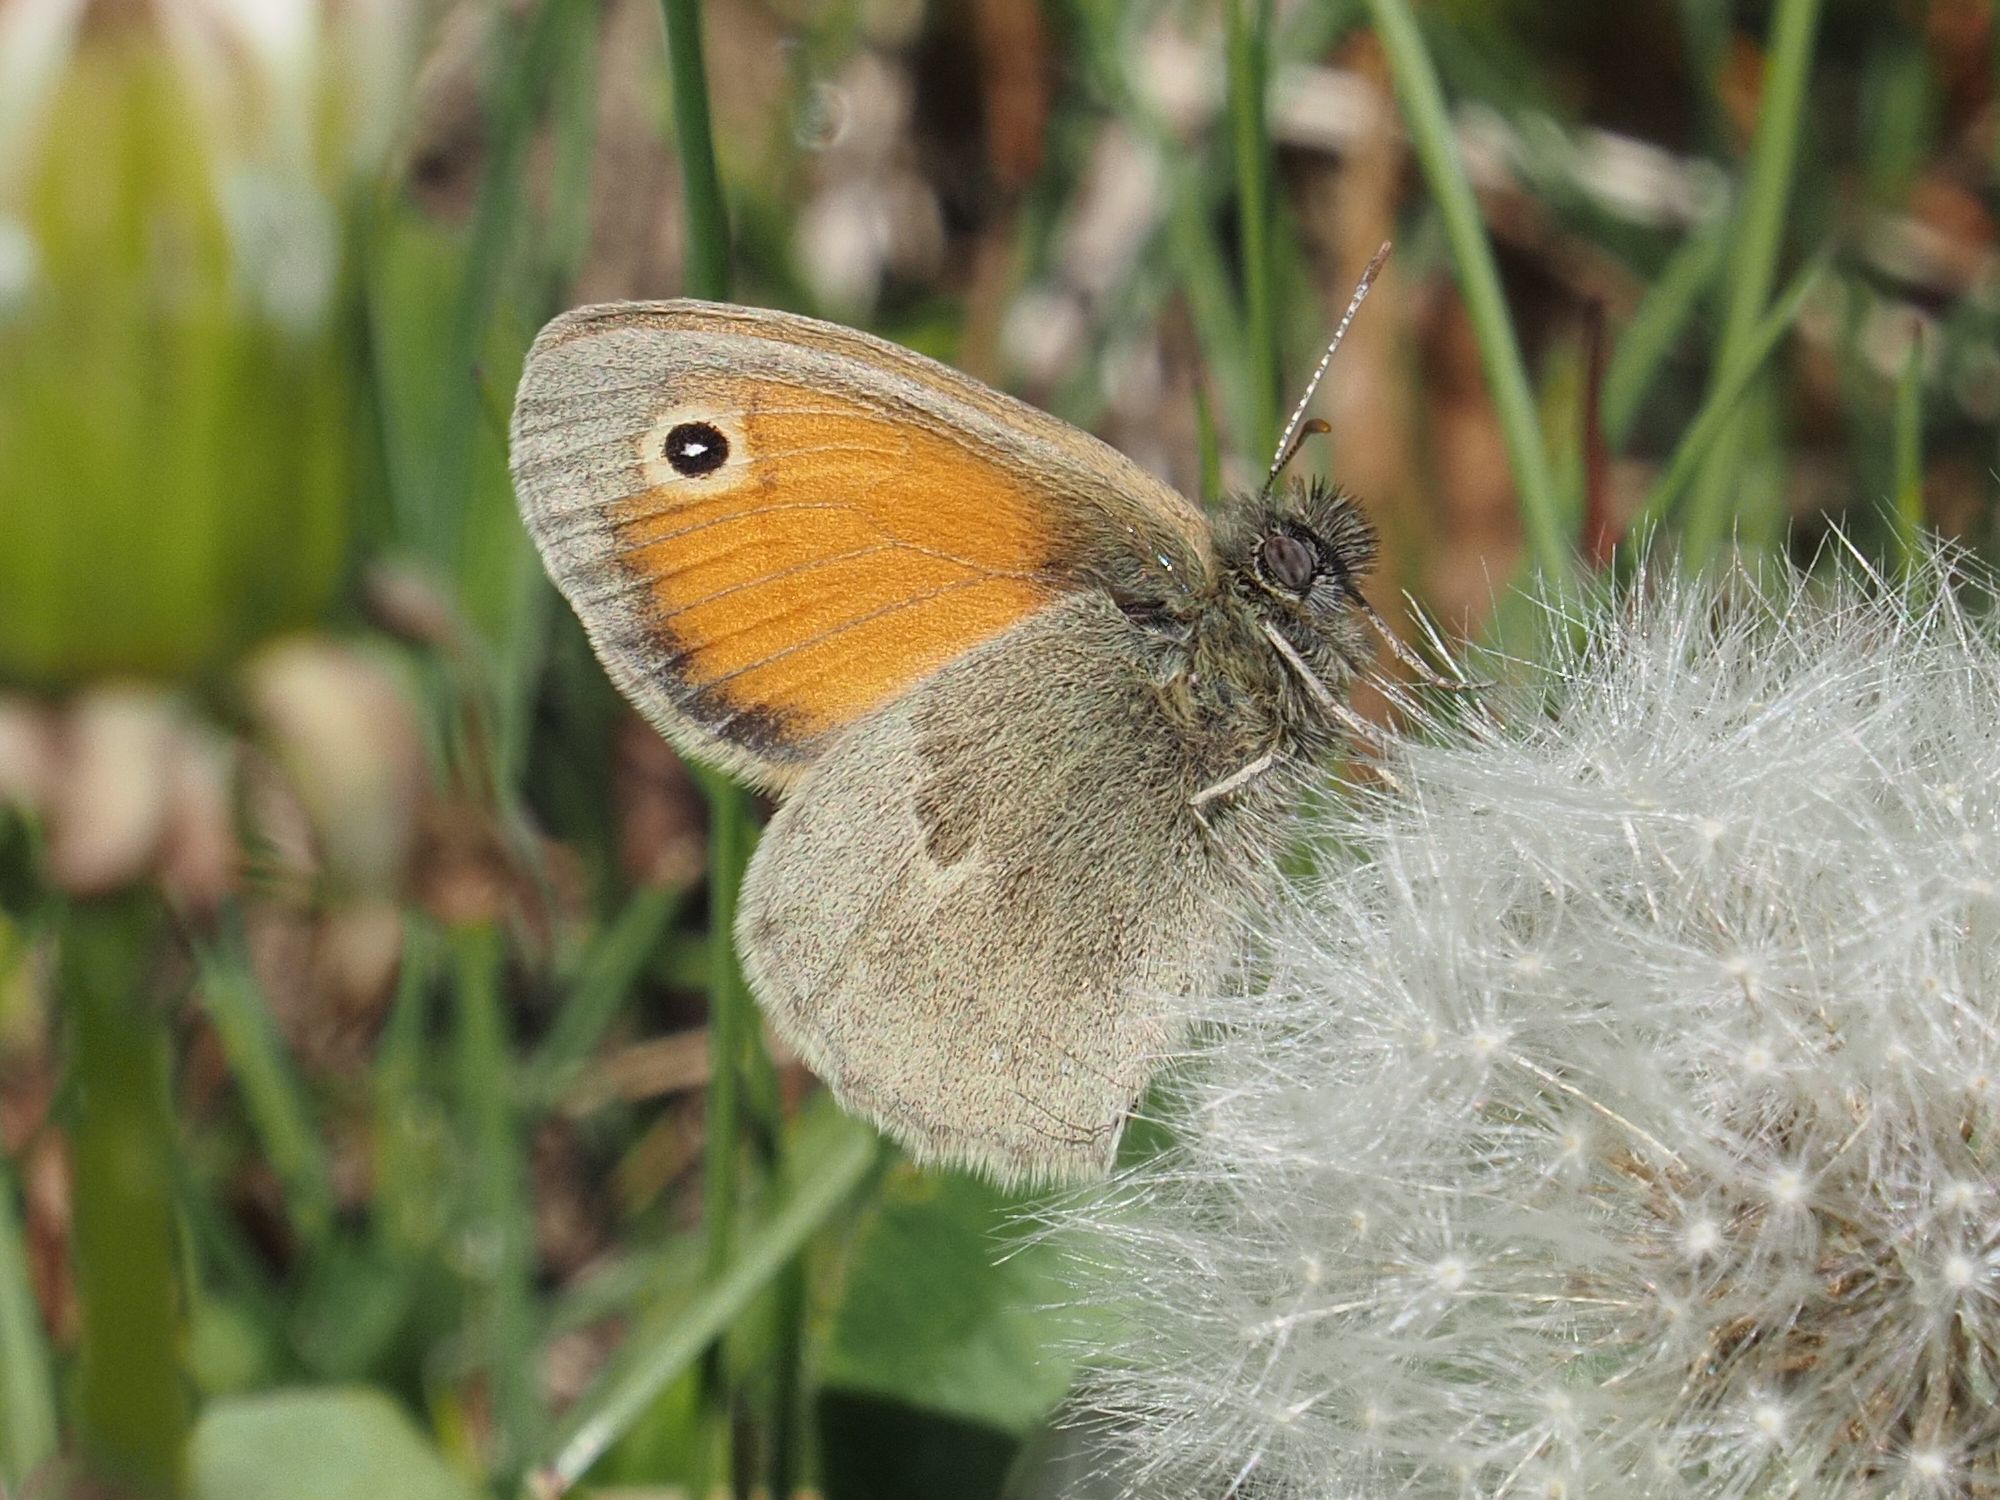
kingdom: Animalia
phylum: Arthropoda
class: Insecta
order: Lepidoptera
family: Nymphalidae
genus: Coenonympha
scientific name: Coenonympha pamphilus
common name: Small heath
